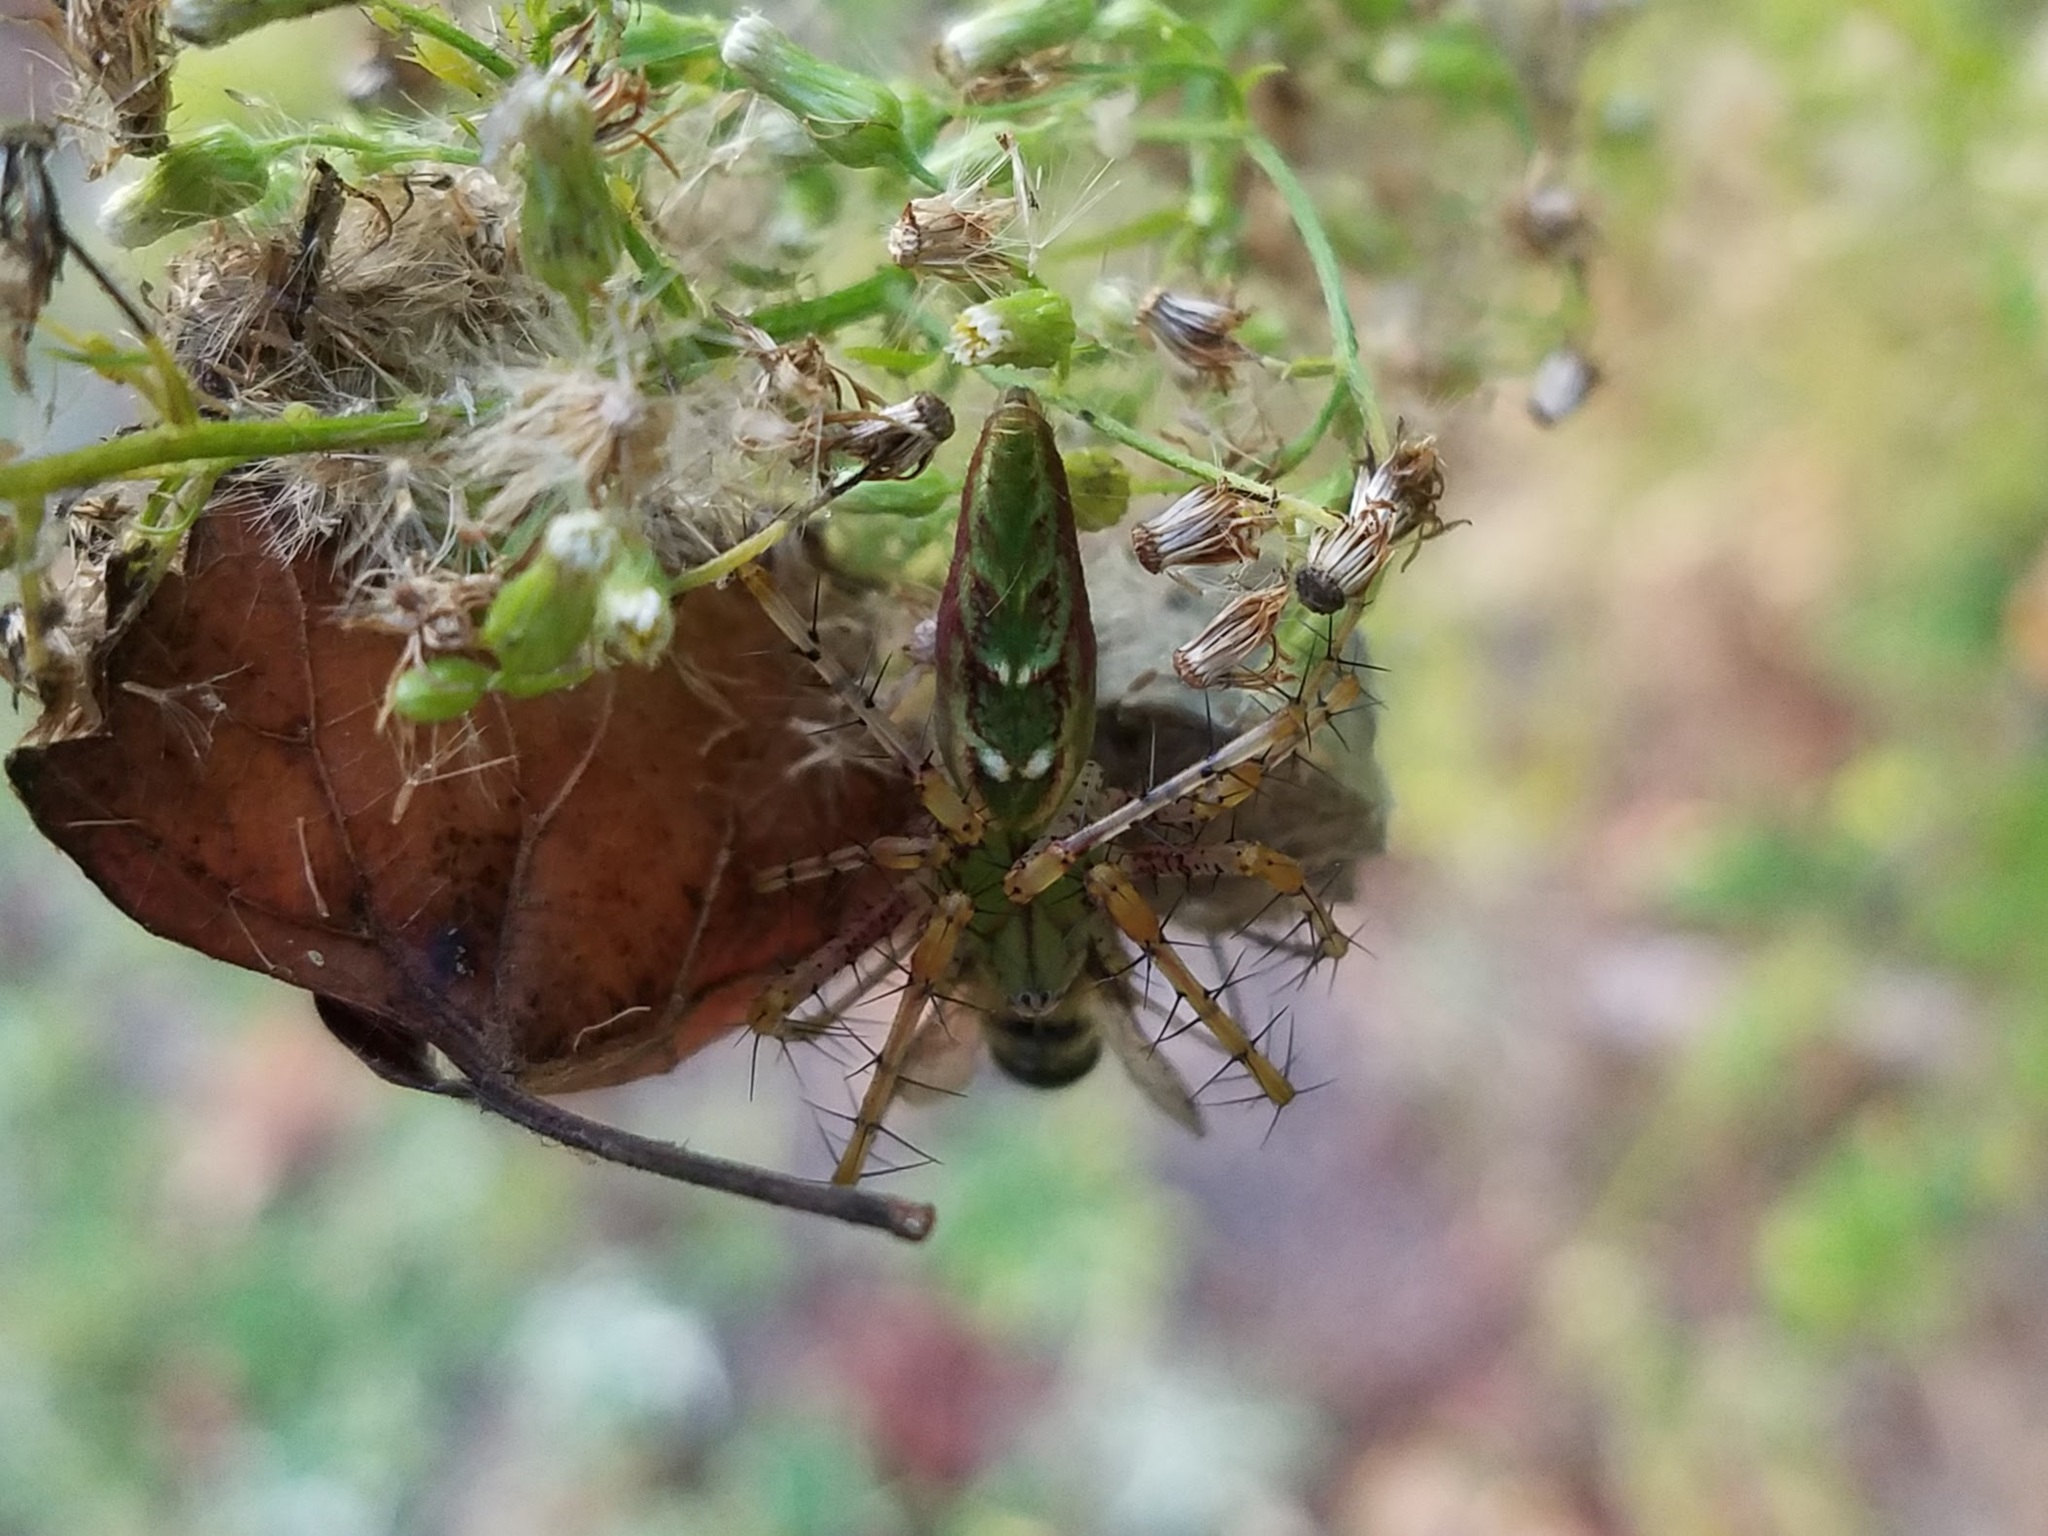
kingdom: Animalia
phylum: Arthropoda
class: Arachnida
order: Araneae
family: Oxyopidae
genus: Peucetia
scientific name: Peucetia viridans
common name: Lynx spiders
